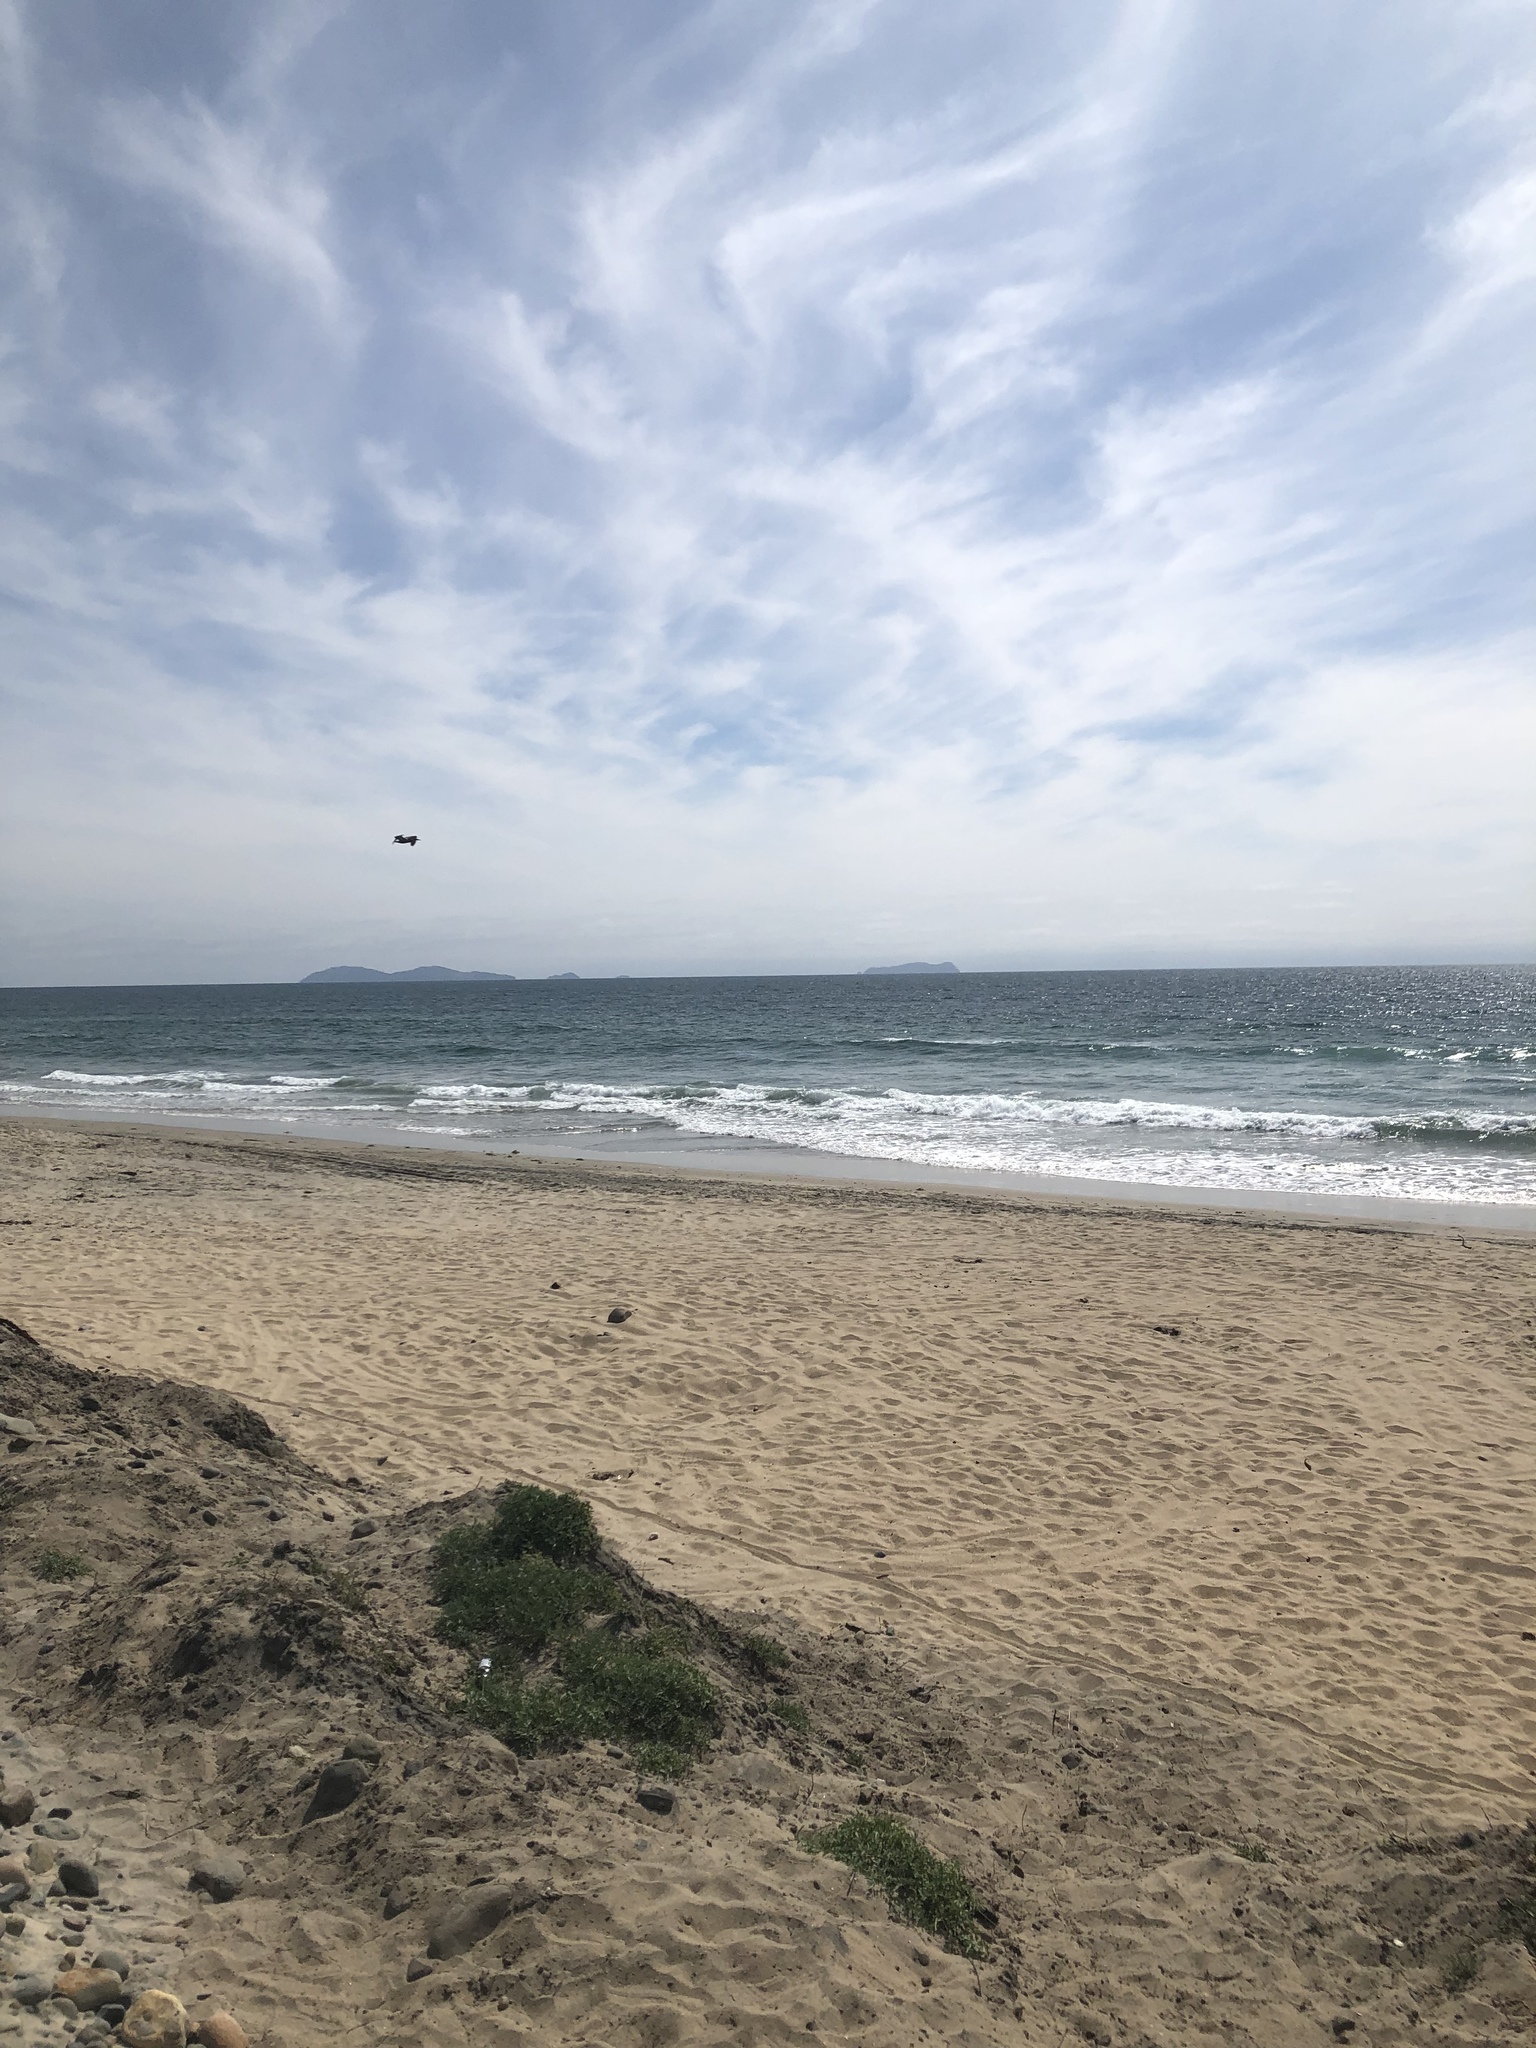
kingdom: Animalia
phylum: Chordata
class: Aves
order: Pelecaniformes
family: Pelecanidae
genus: Pelecanus
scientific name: Pelecanus occidentalis
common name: Brown pelican
